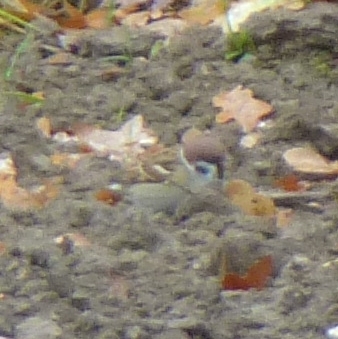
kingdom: Animalia
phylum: Chordata
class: Aves
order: Passeriformes
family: Passeridae
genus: Passer
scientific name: Passer montanus
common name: Eurasian tree sparrow
